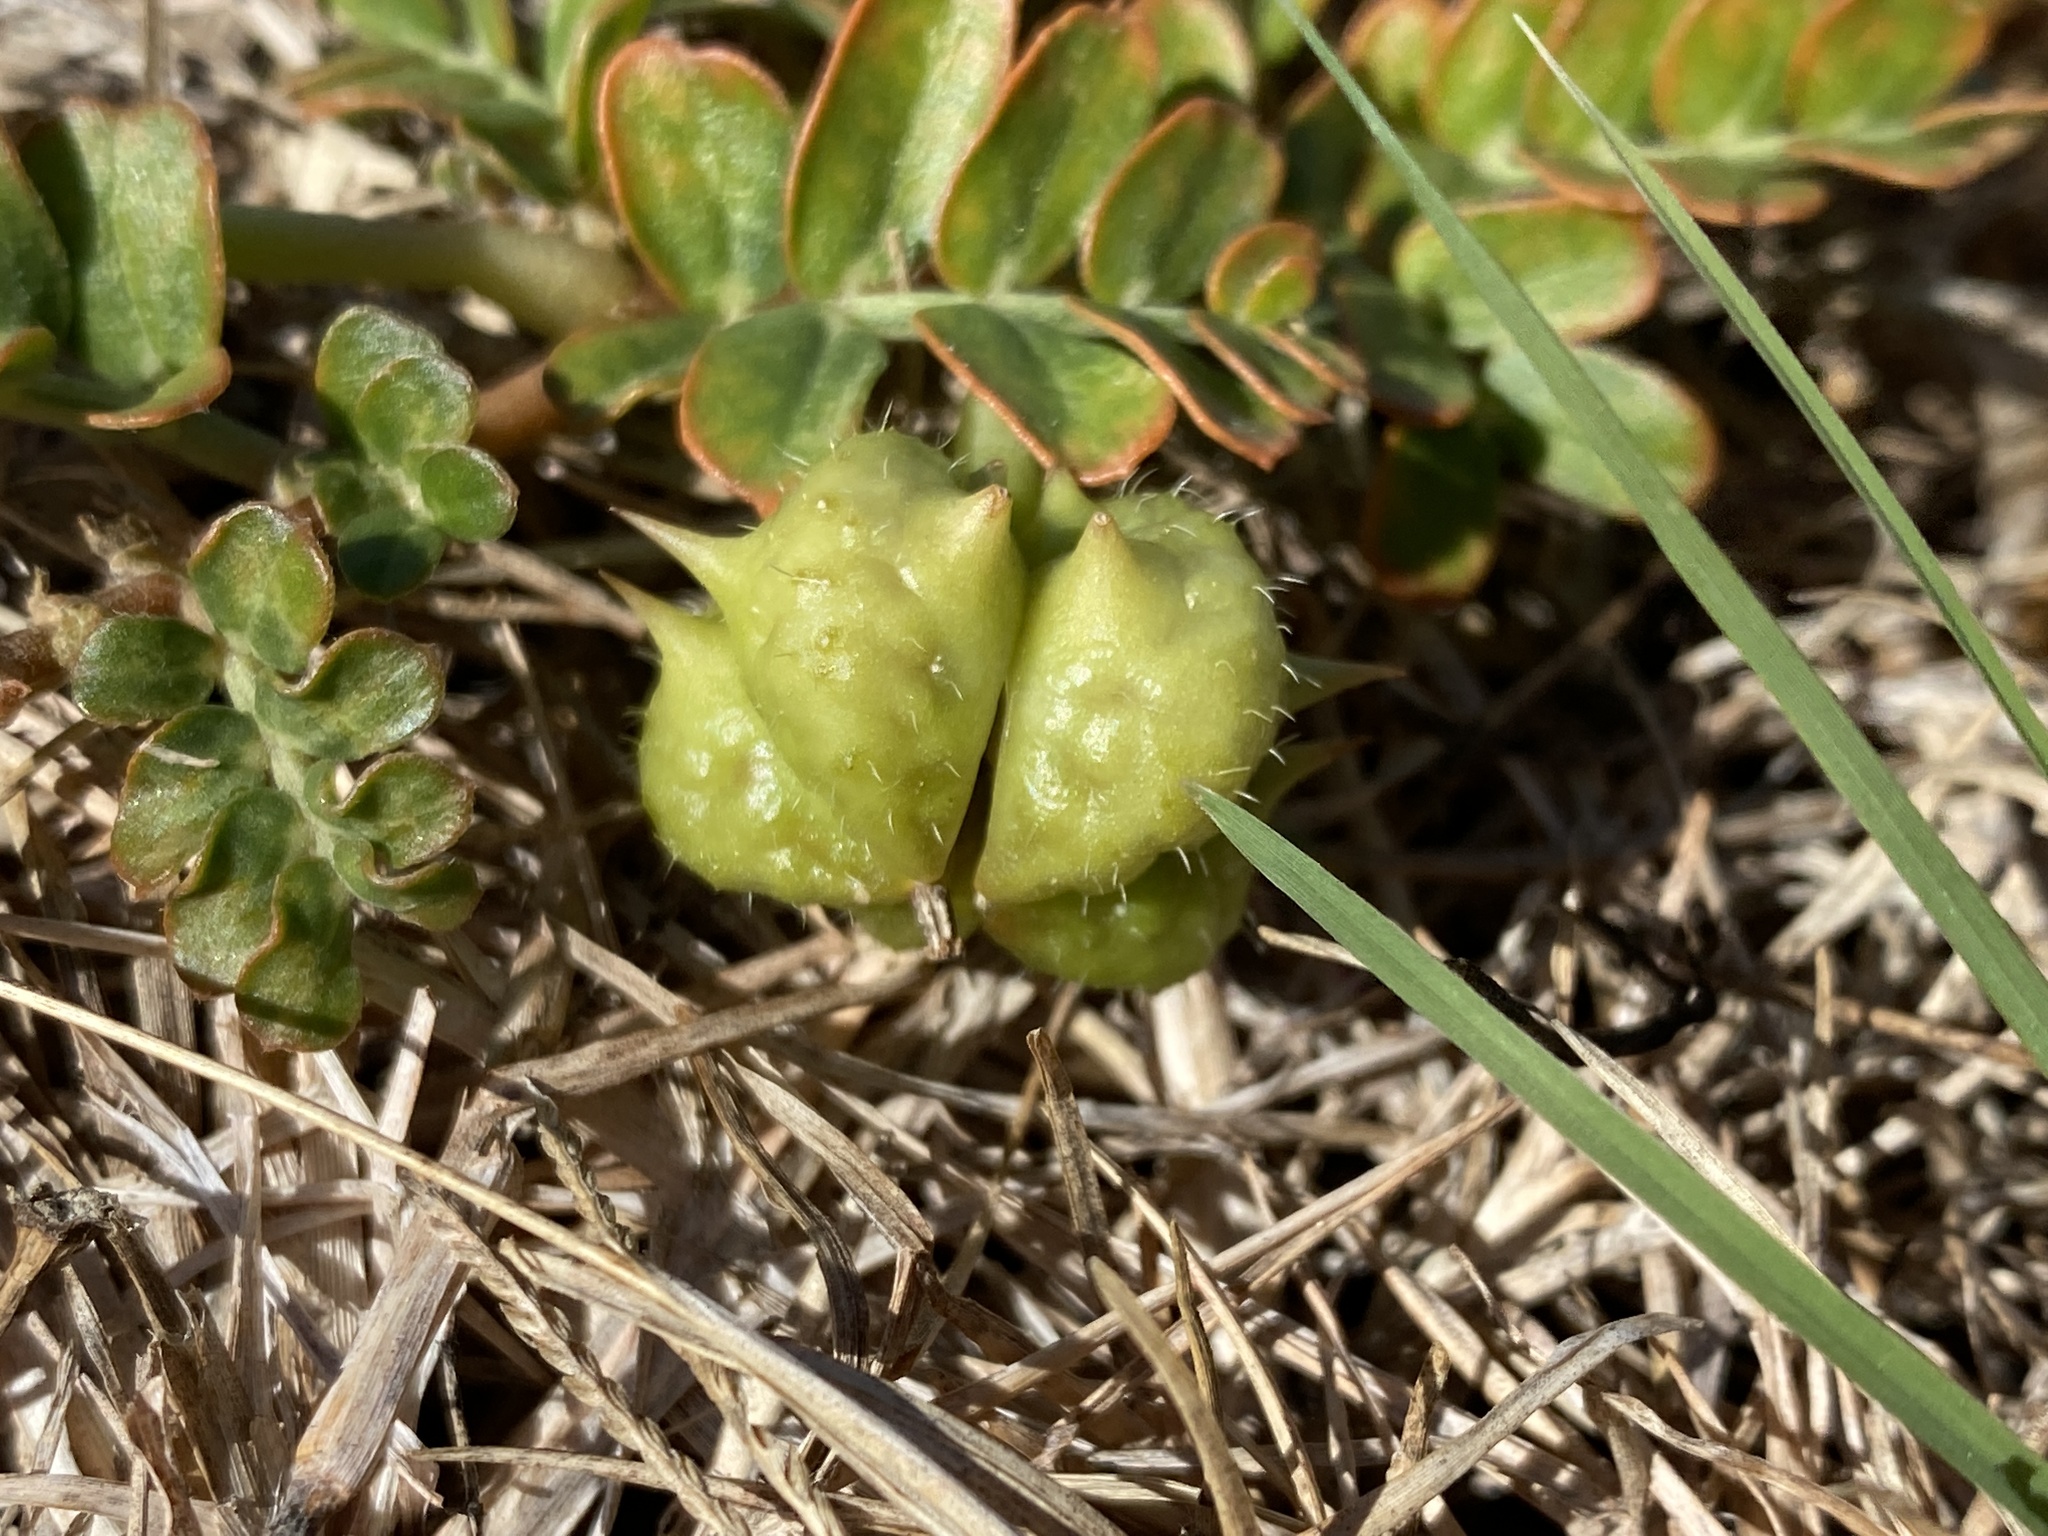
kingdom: Plantae
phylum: Tracheophyta
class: Magnoliopsida
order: Zygophyllales
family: Zygophyllaceae
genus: Tribulus
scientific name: Tribulus cistoides
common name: Jamaican feverplant
